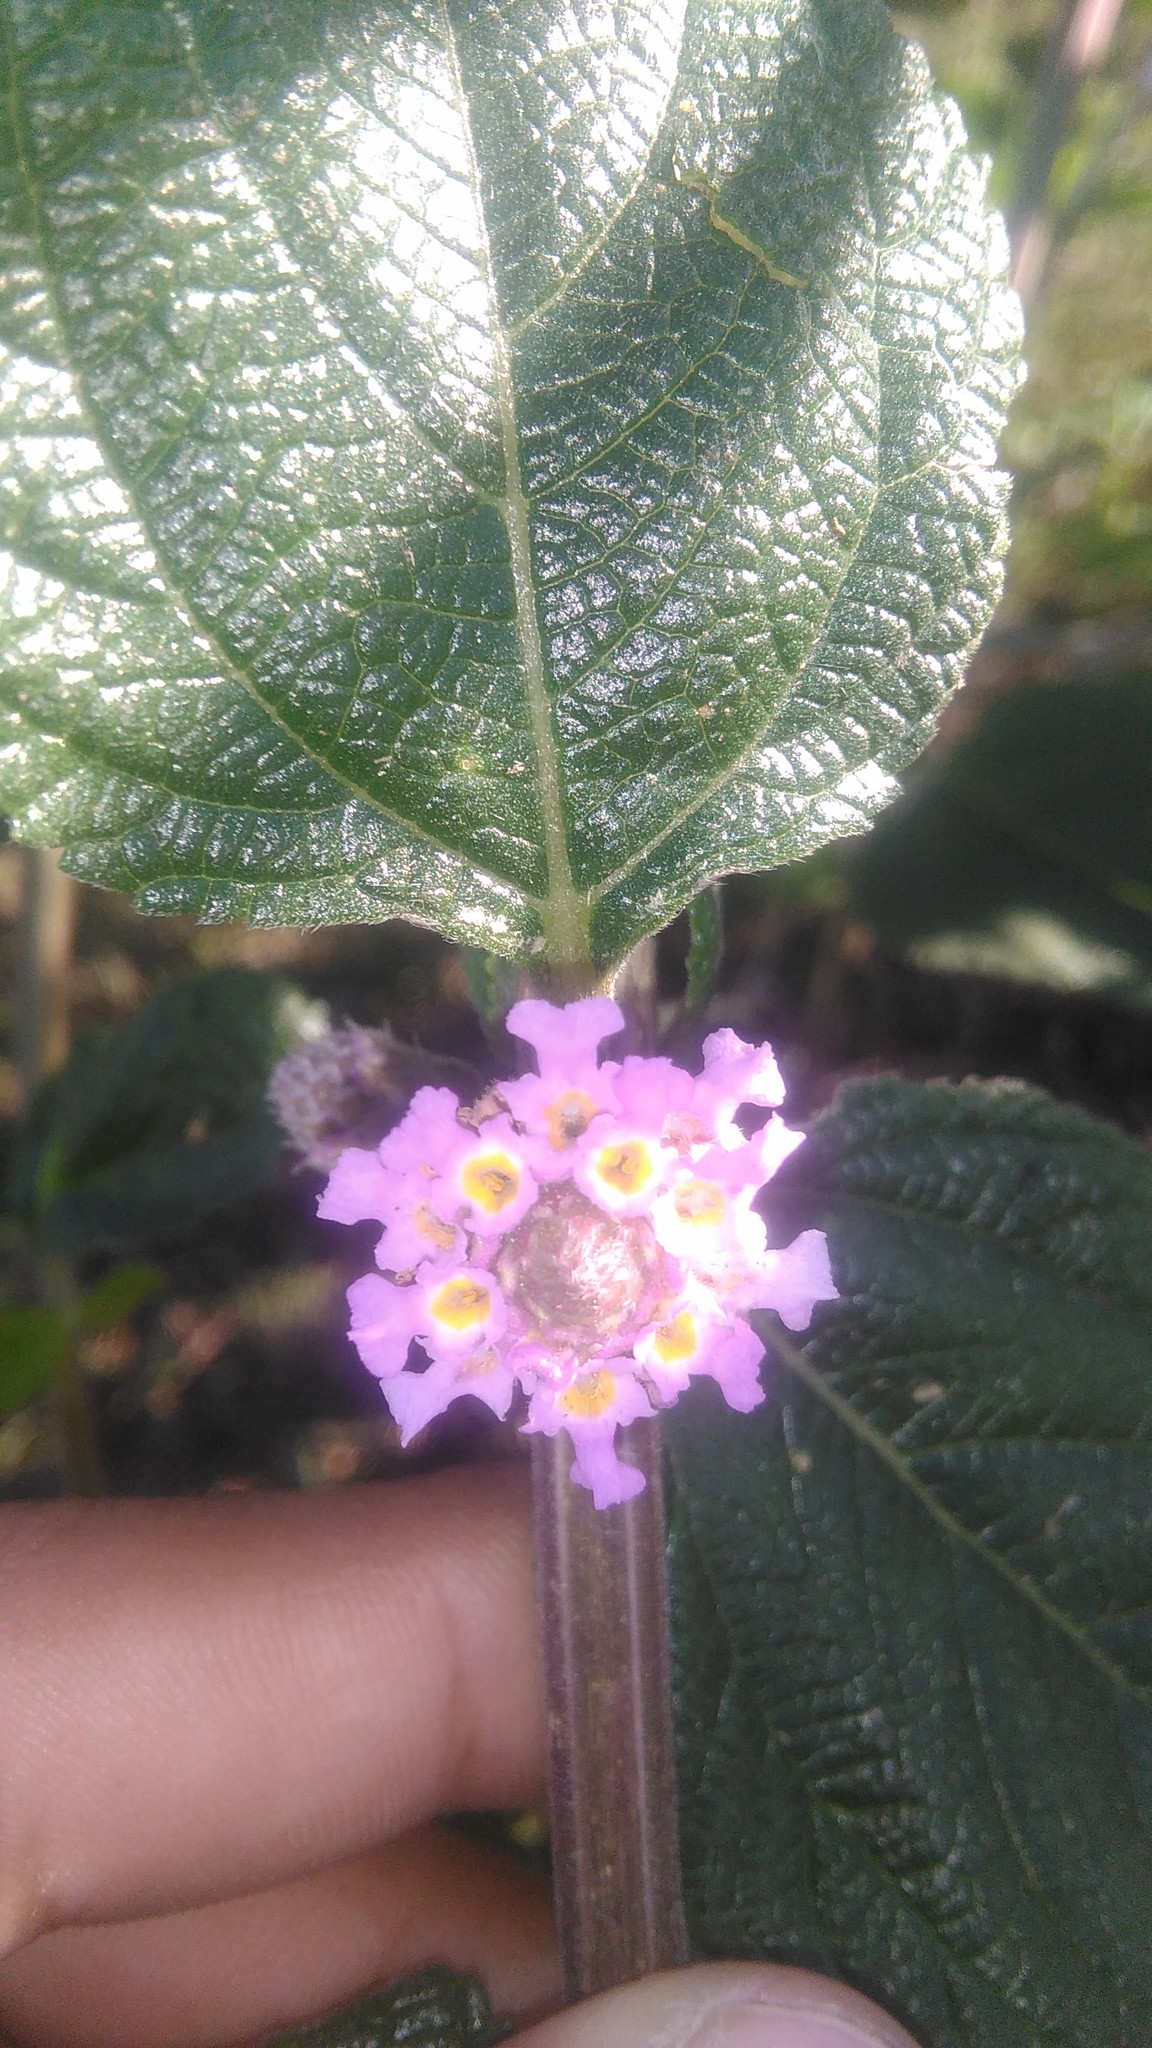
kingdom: Plantae
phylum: Tracheophyta
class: Magnoliopsida
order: Lamiales
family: Verbenaceae
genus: Lippia
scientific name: Lippia alba
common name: Bushy matgrass
